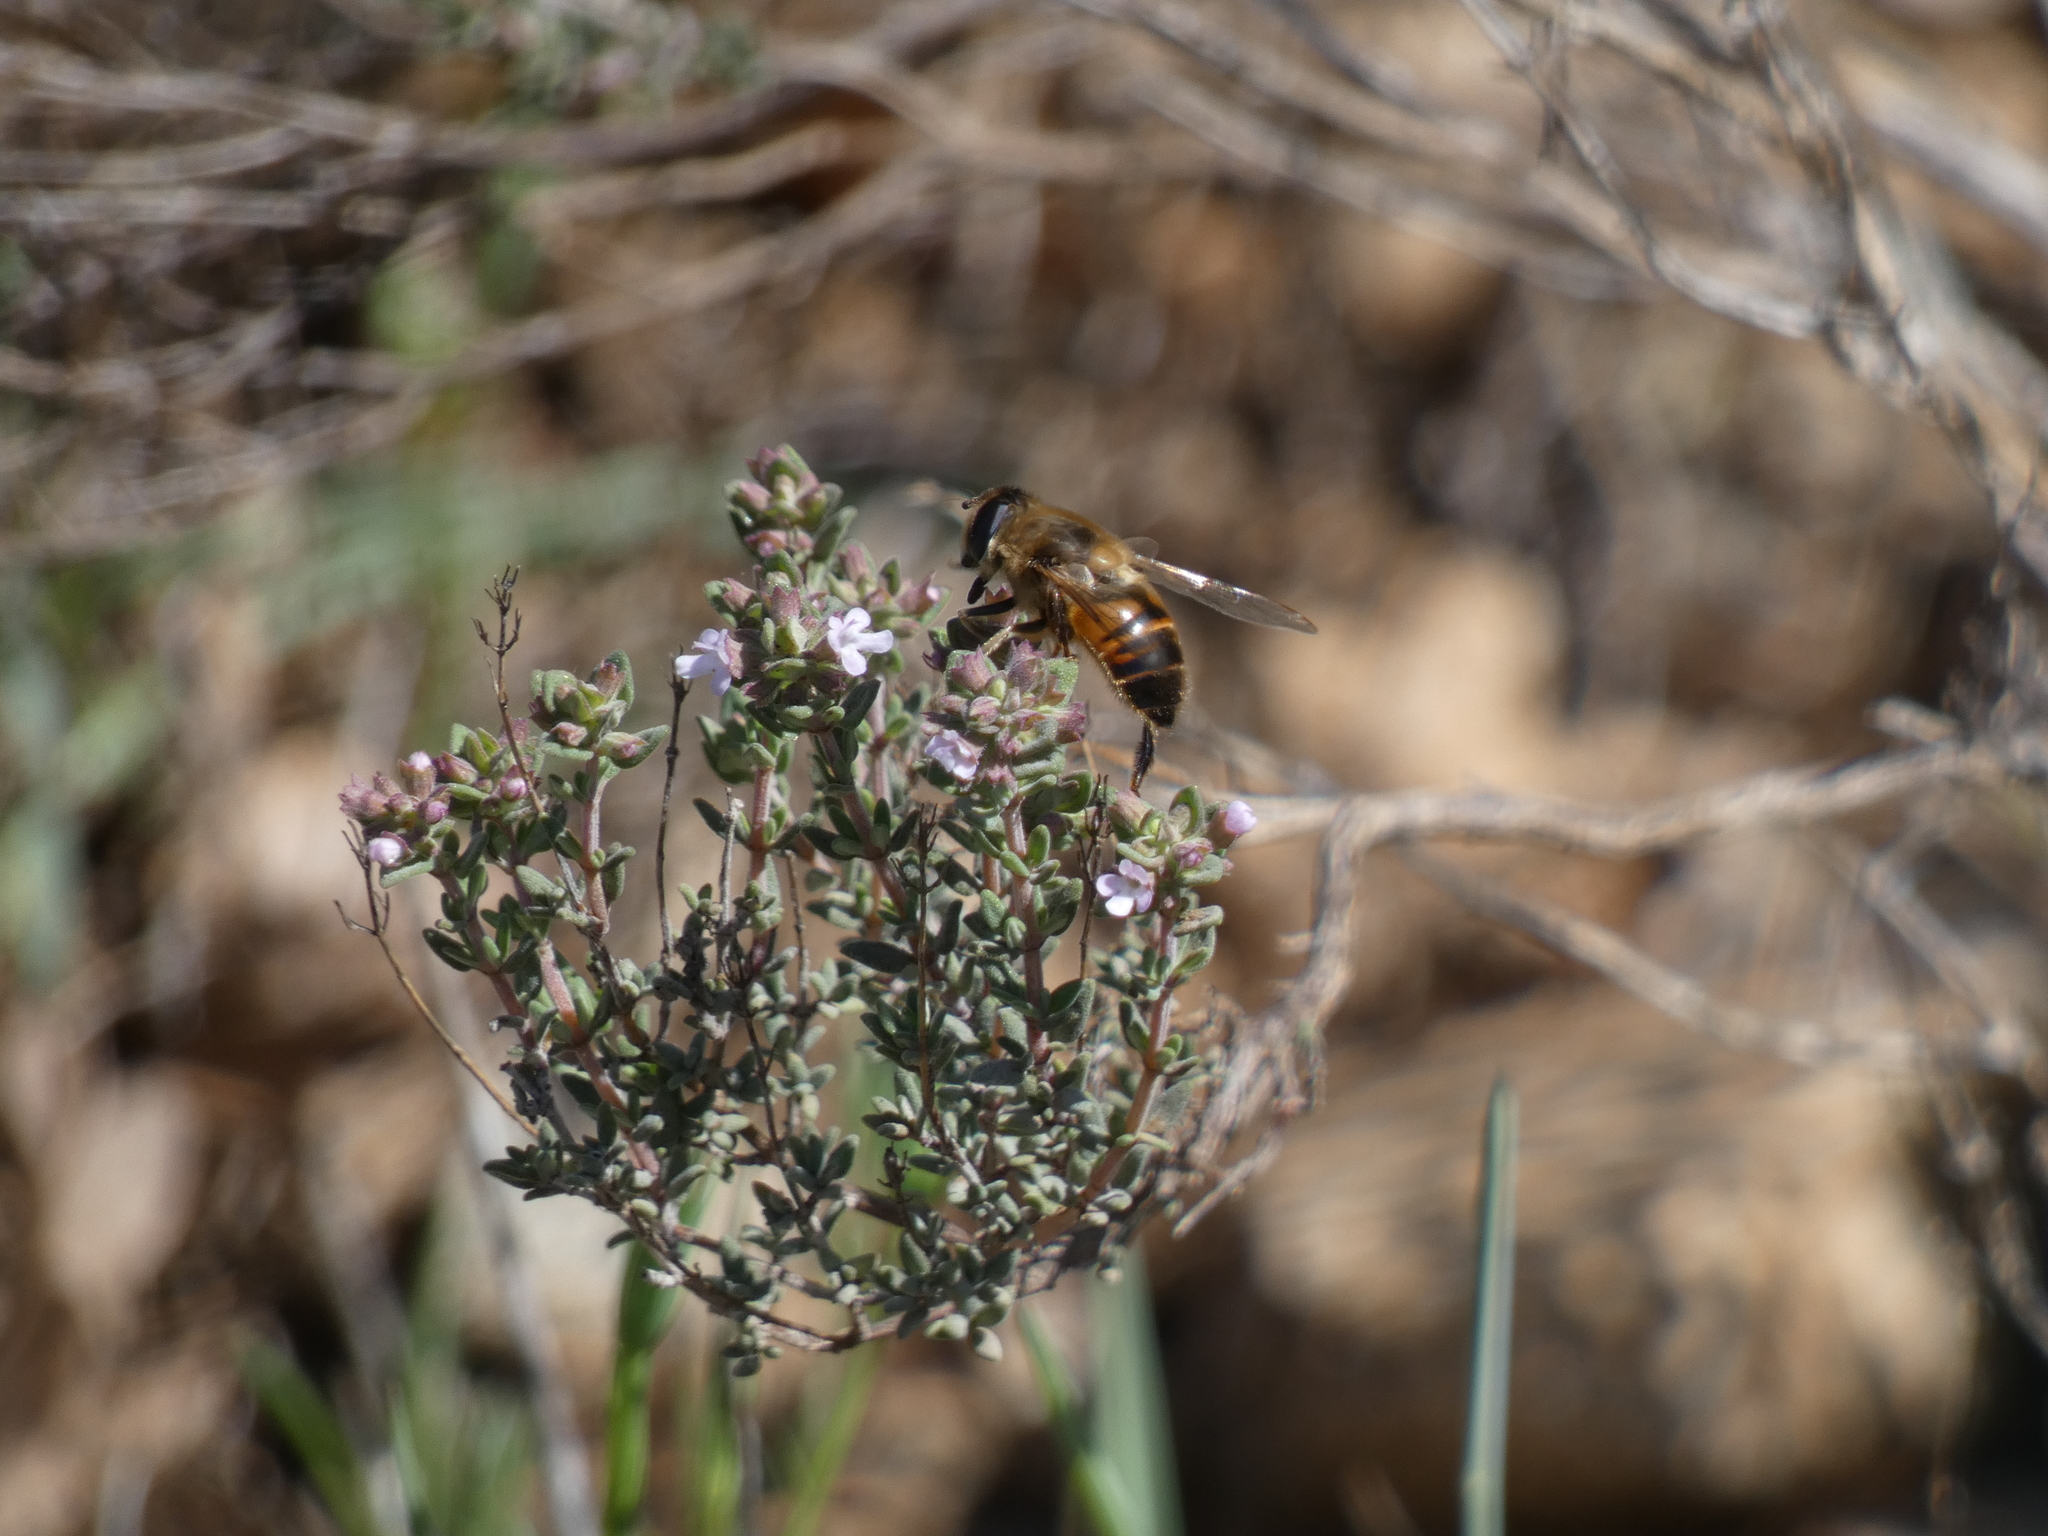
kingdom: Animalia
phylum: Arthropoda
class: Insecta
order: Diptera
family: Syrphidae
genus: Eristalis
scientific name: Eristalis tenax
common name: Drone fly
